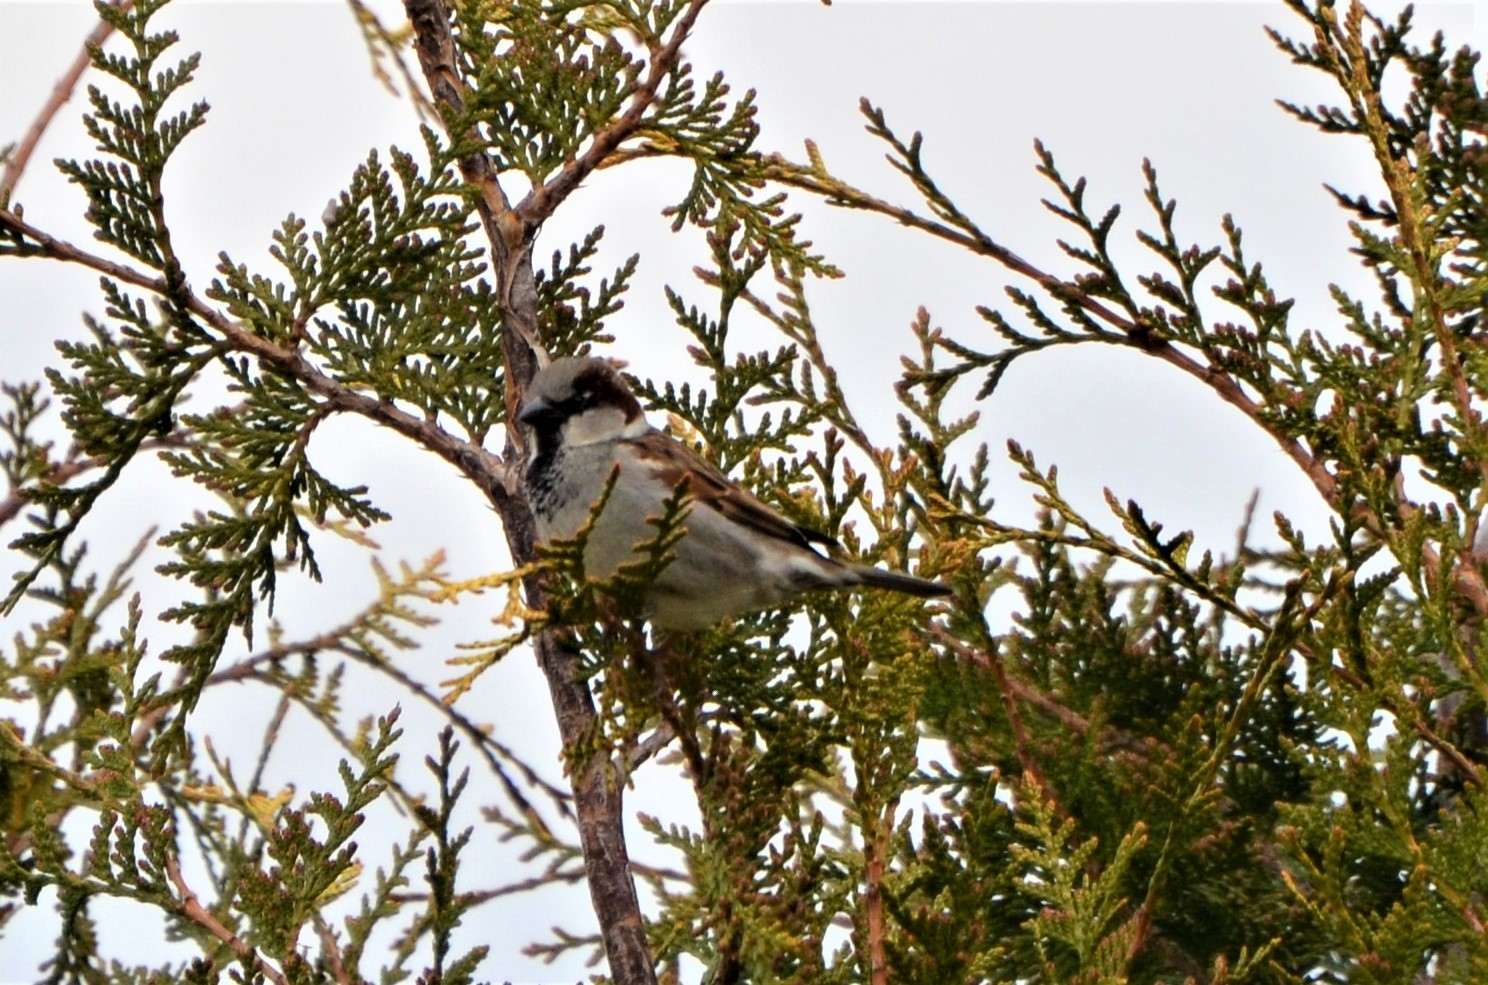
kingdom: Animalia
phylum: Chordata
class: Aves
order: Passeriformes
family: Passeridae
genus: Passer
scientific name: Passer domesticus
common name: House sparrow
